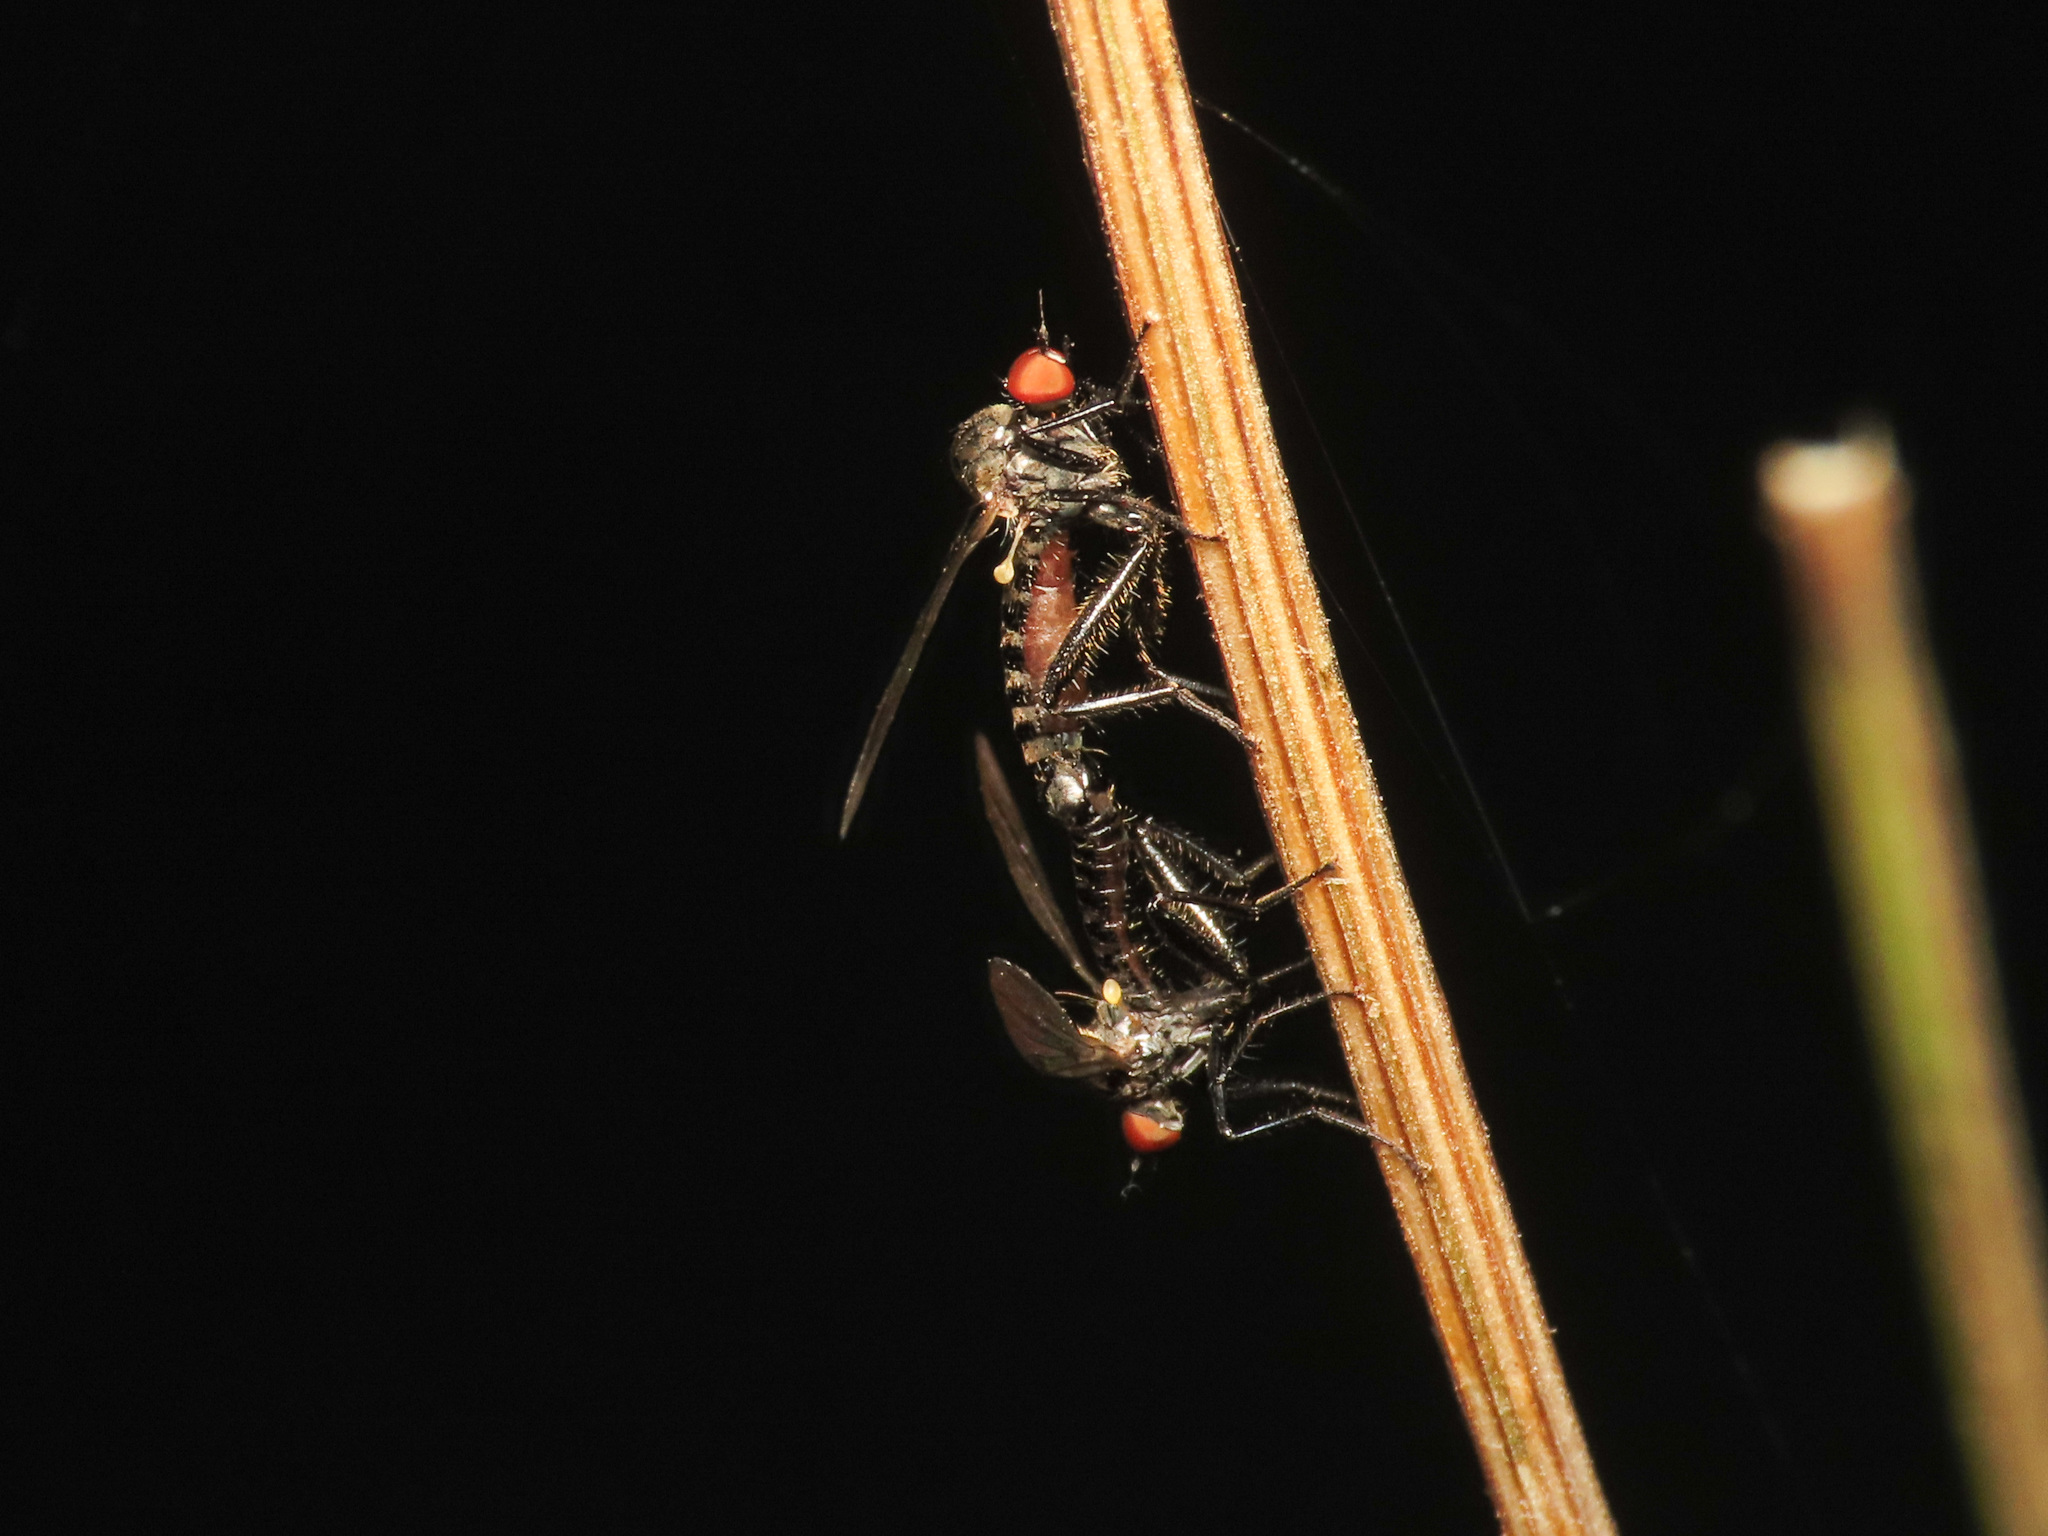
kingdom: Animalia
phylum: Arthropoda
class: Insecta
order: Diptera
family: Hybotidae
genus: Hybos
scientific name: Hybos culiciformis
